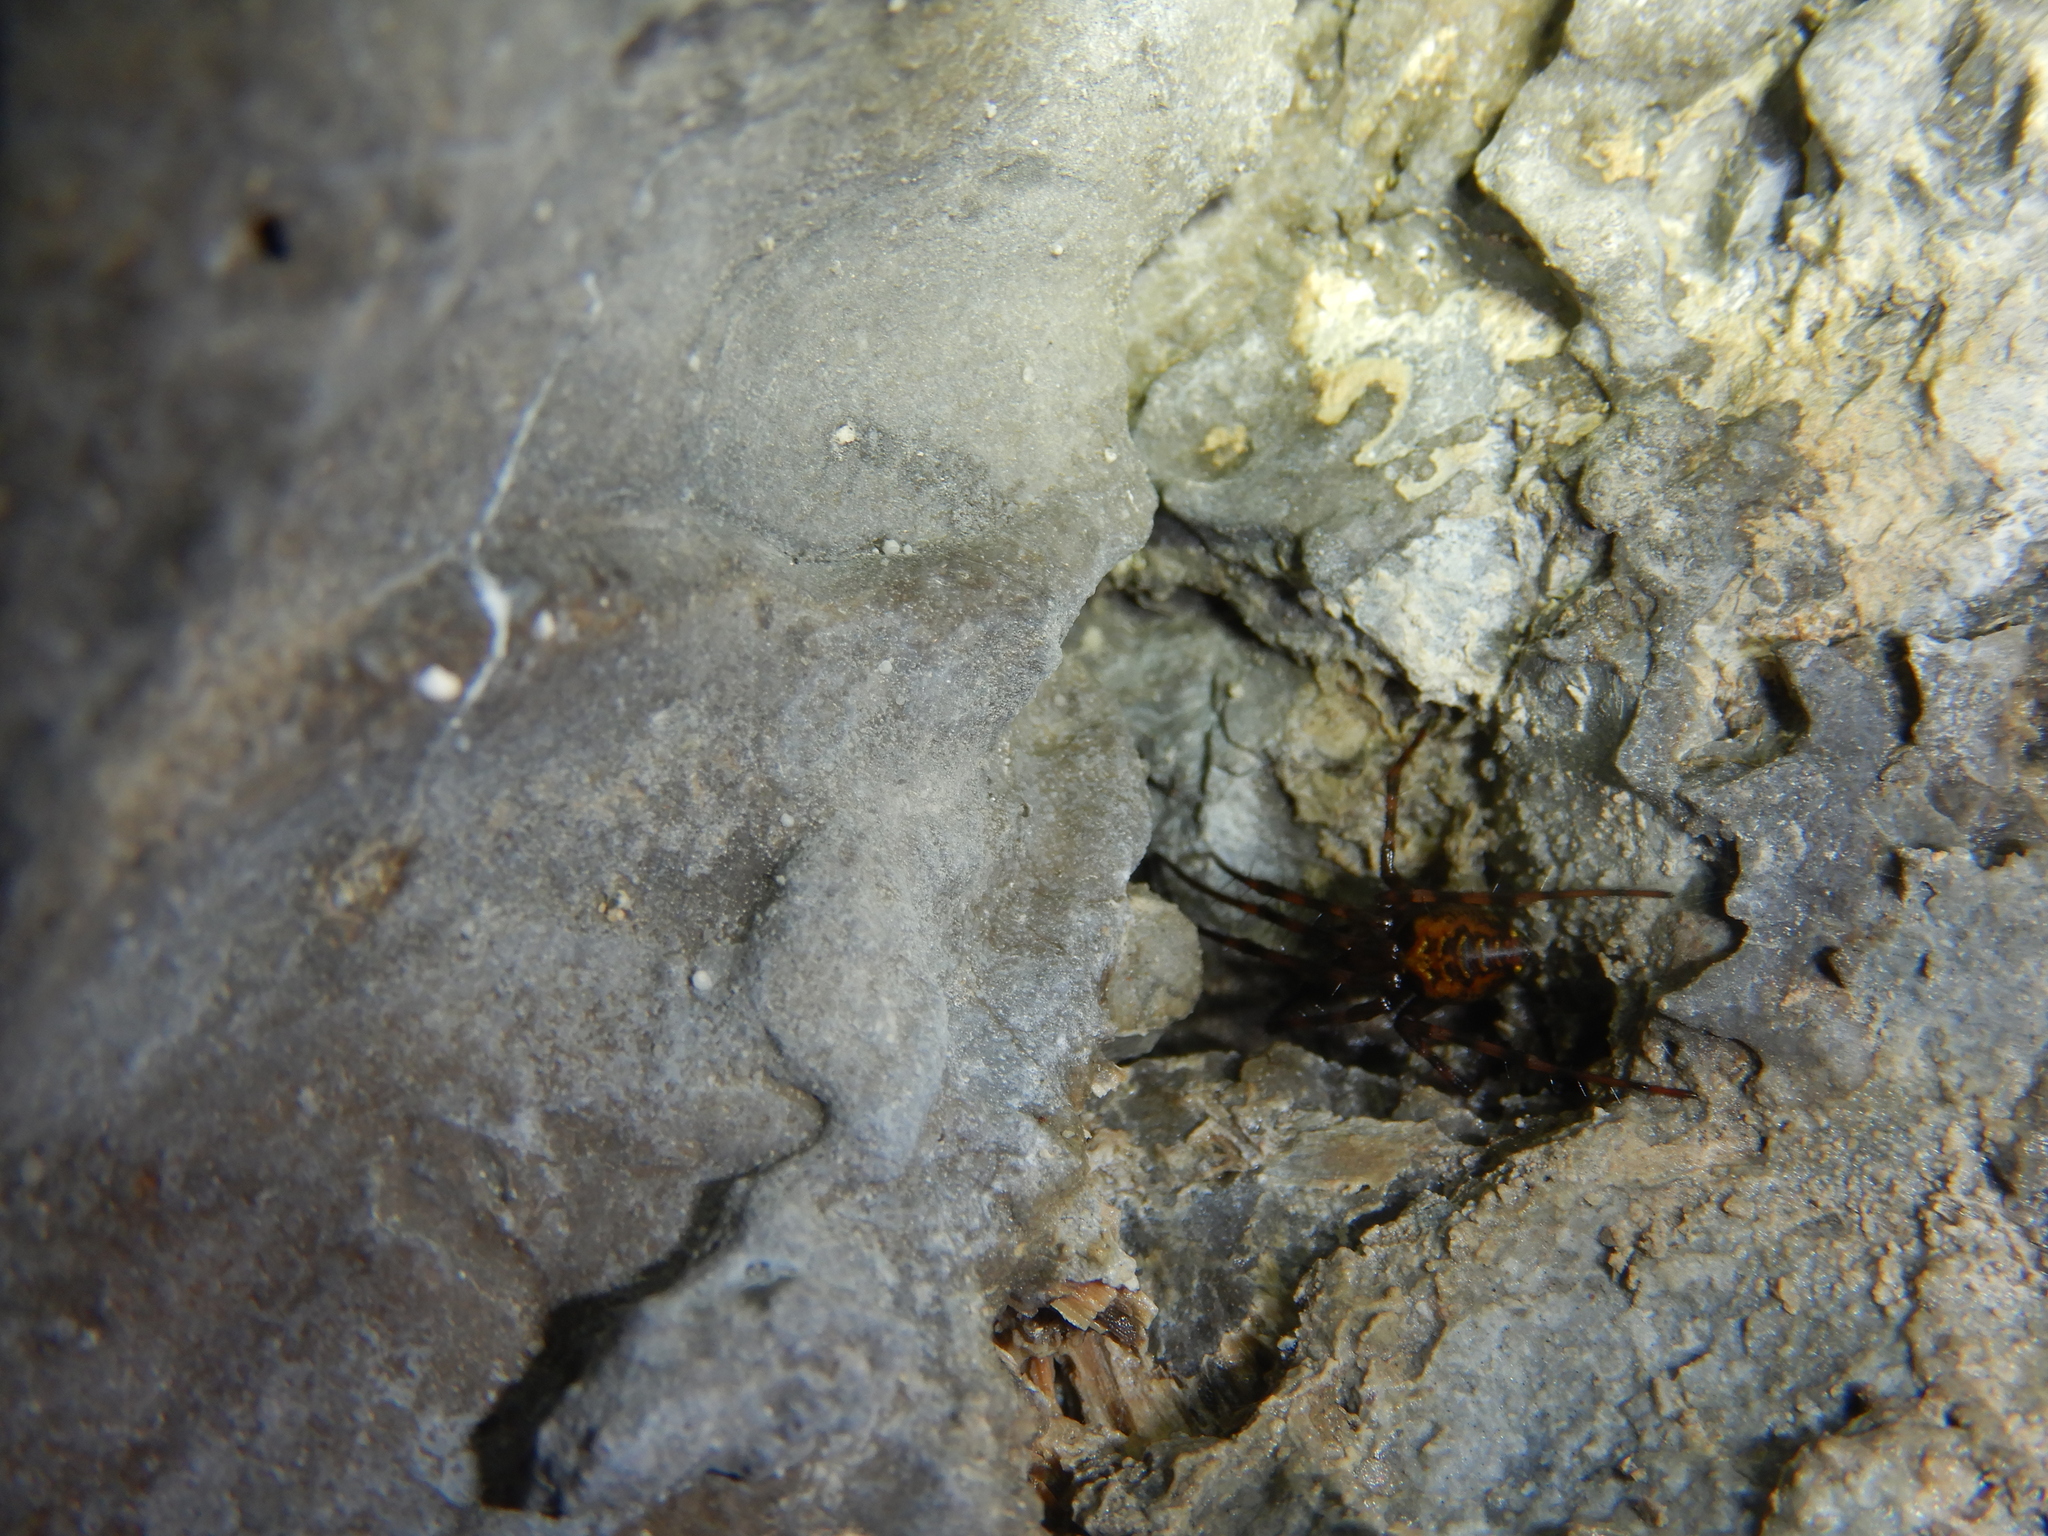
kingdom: Animalia
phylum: Arthropoda
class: Arachnida
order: Araneae
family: Tetragnathidae
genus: Meta
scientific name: Meta menardi
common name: Cave spider
